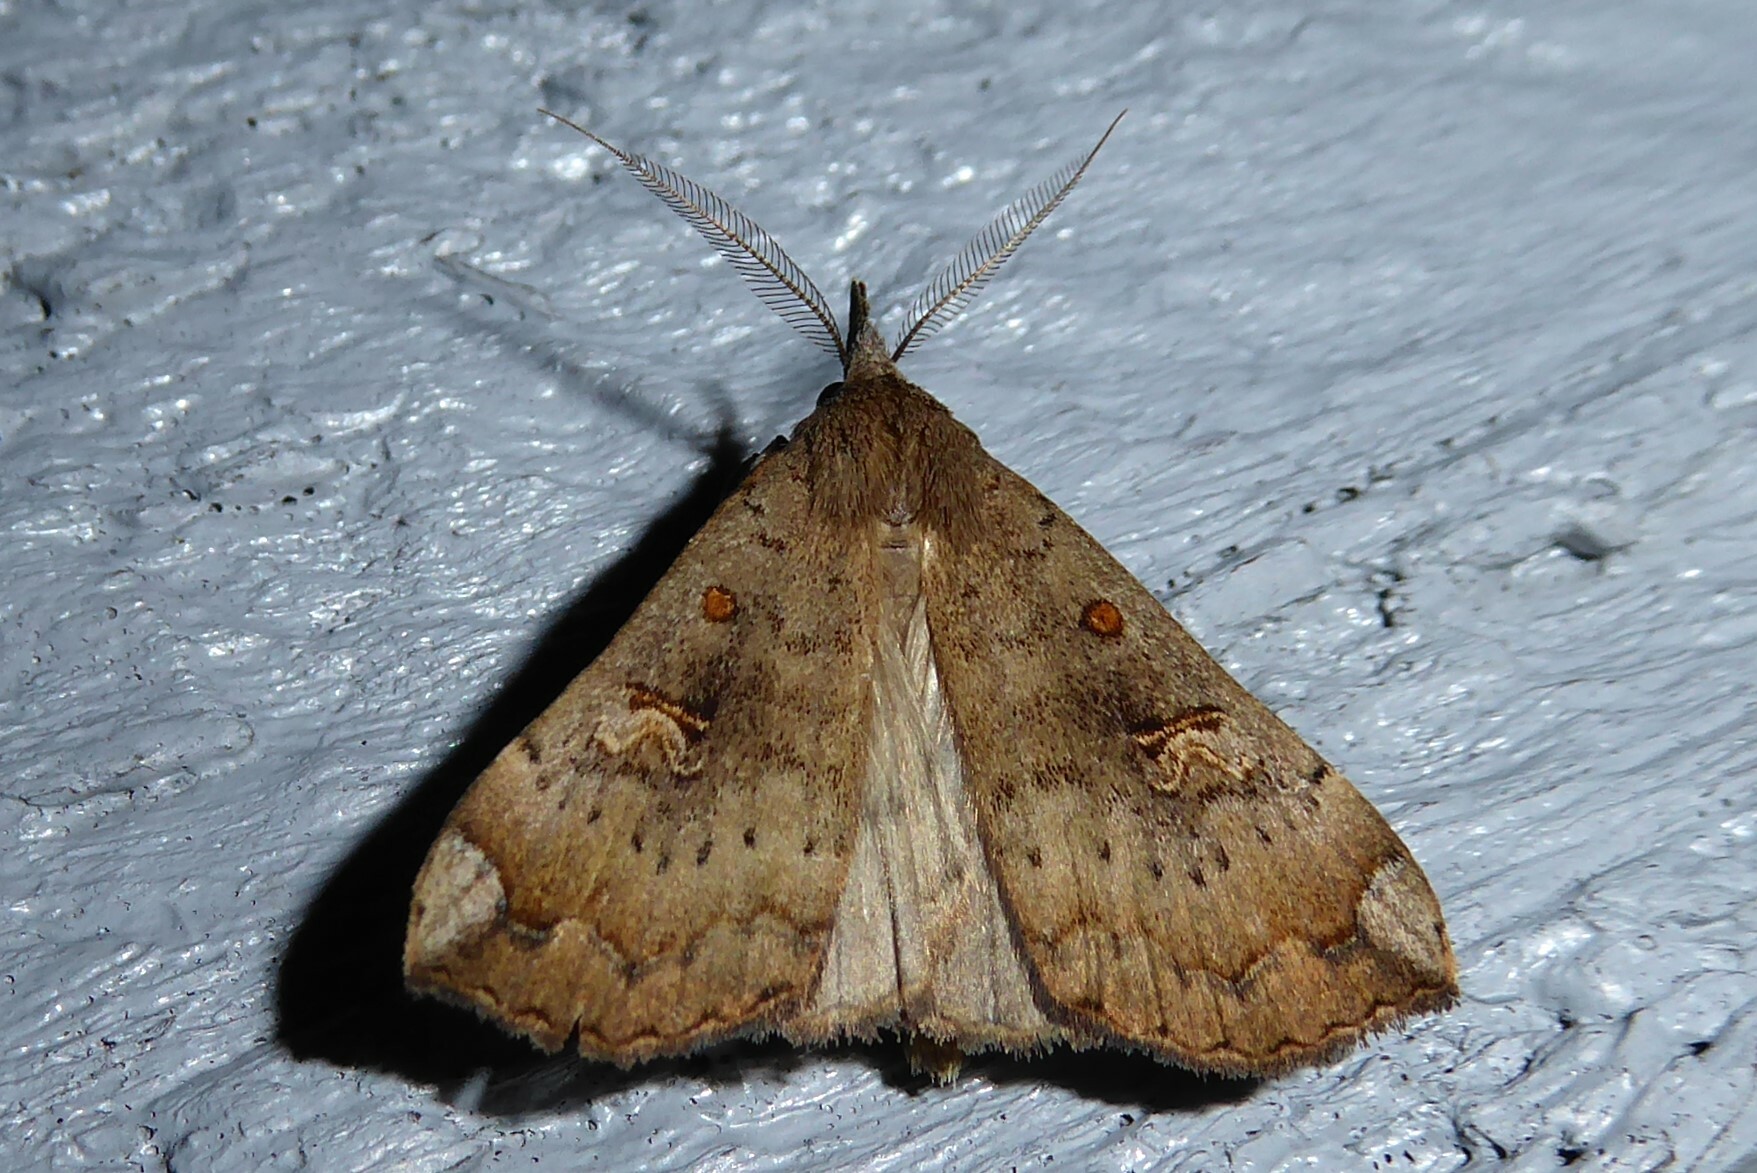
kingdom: Animalia
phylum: Arthropoda
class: Insecta
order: Lepidoptera
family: Erebidae
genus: Rhapsa
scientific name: Rhapsa scotosialis
